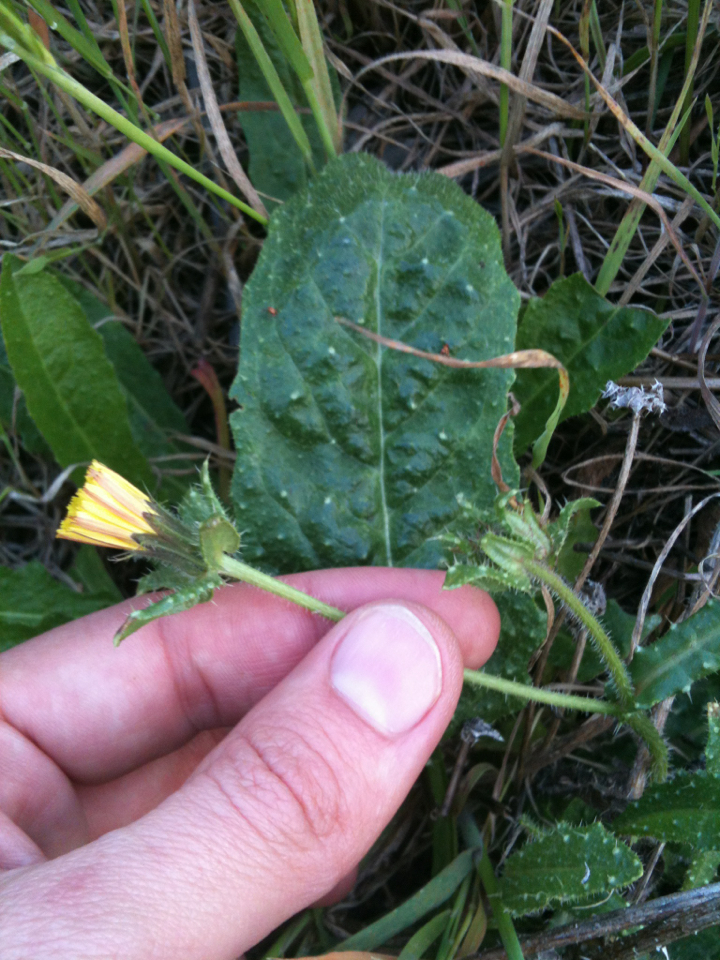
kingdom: Plantae
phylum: Tracheophyta
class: Magnoliopsida
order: Asterales
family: Asteraceae
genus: Helminthotheca
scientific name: Helminthotheca echioides
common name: Ox-tongue
